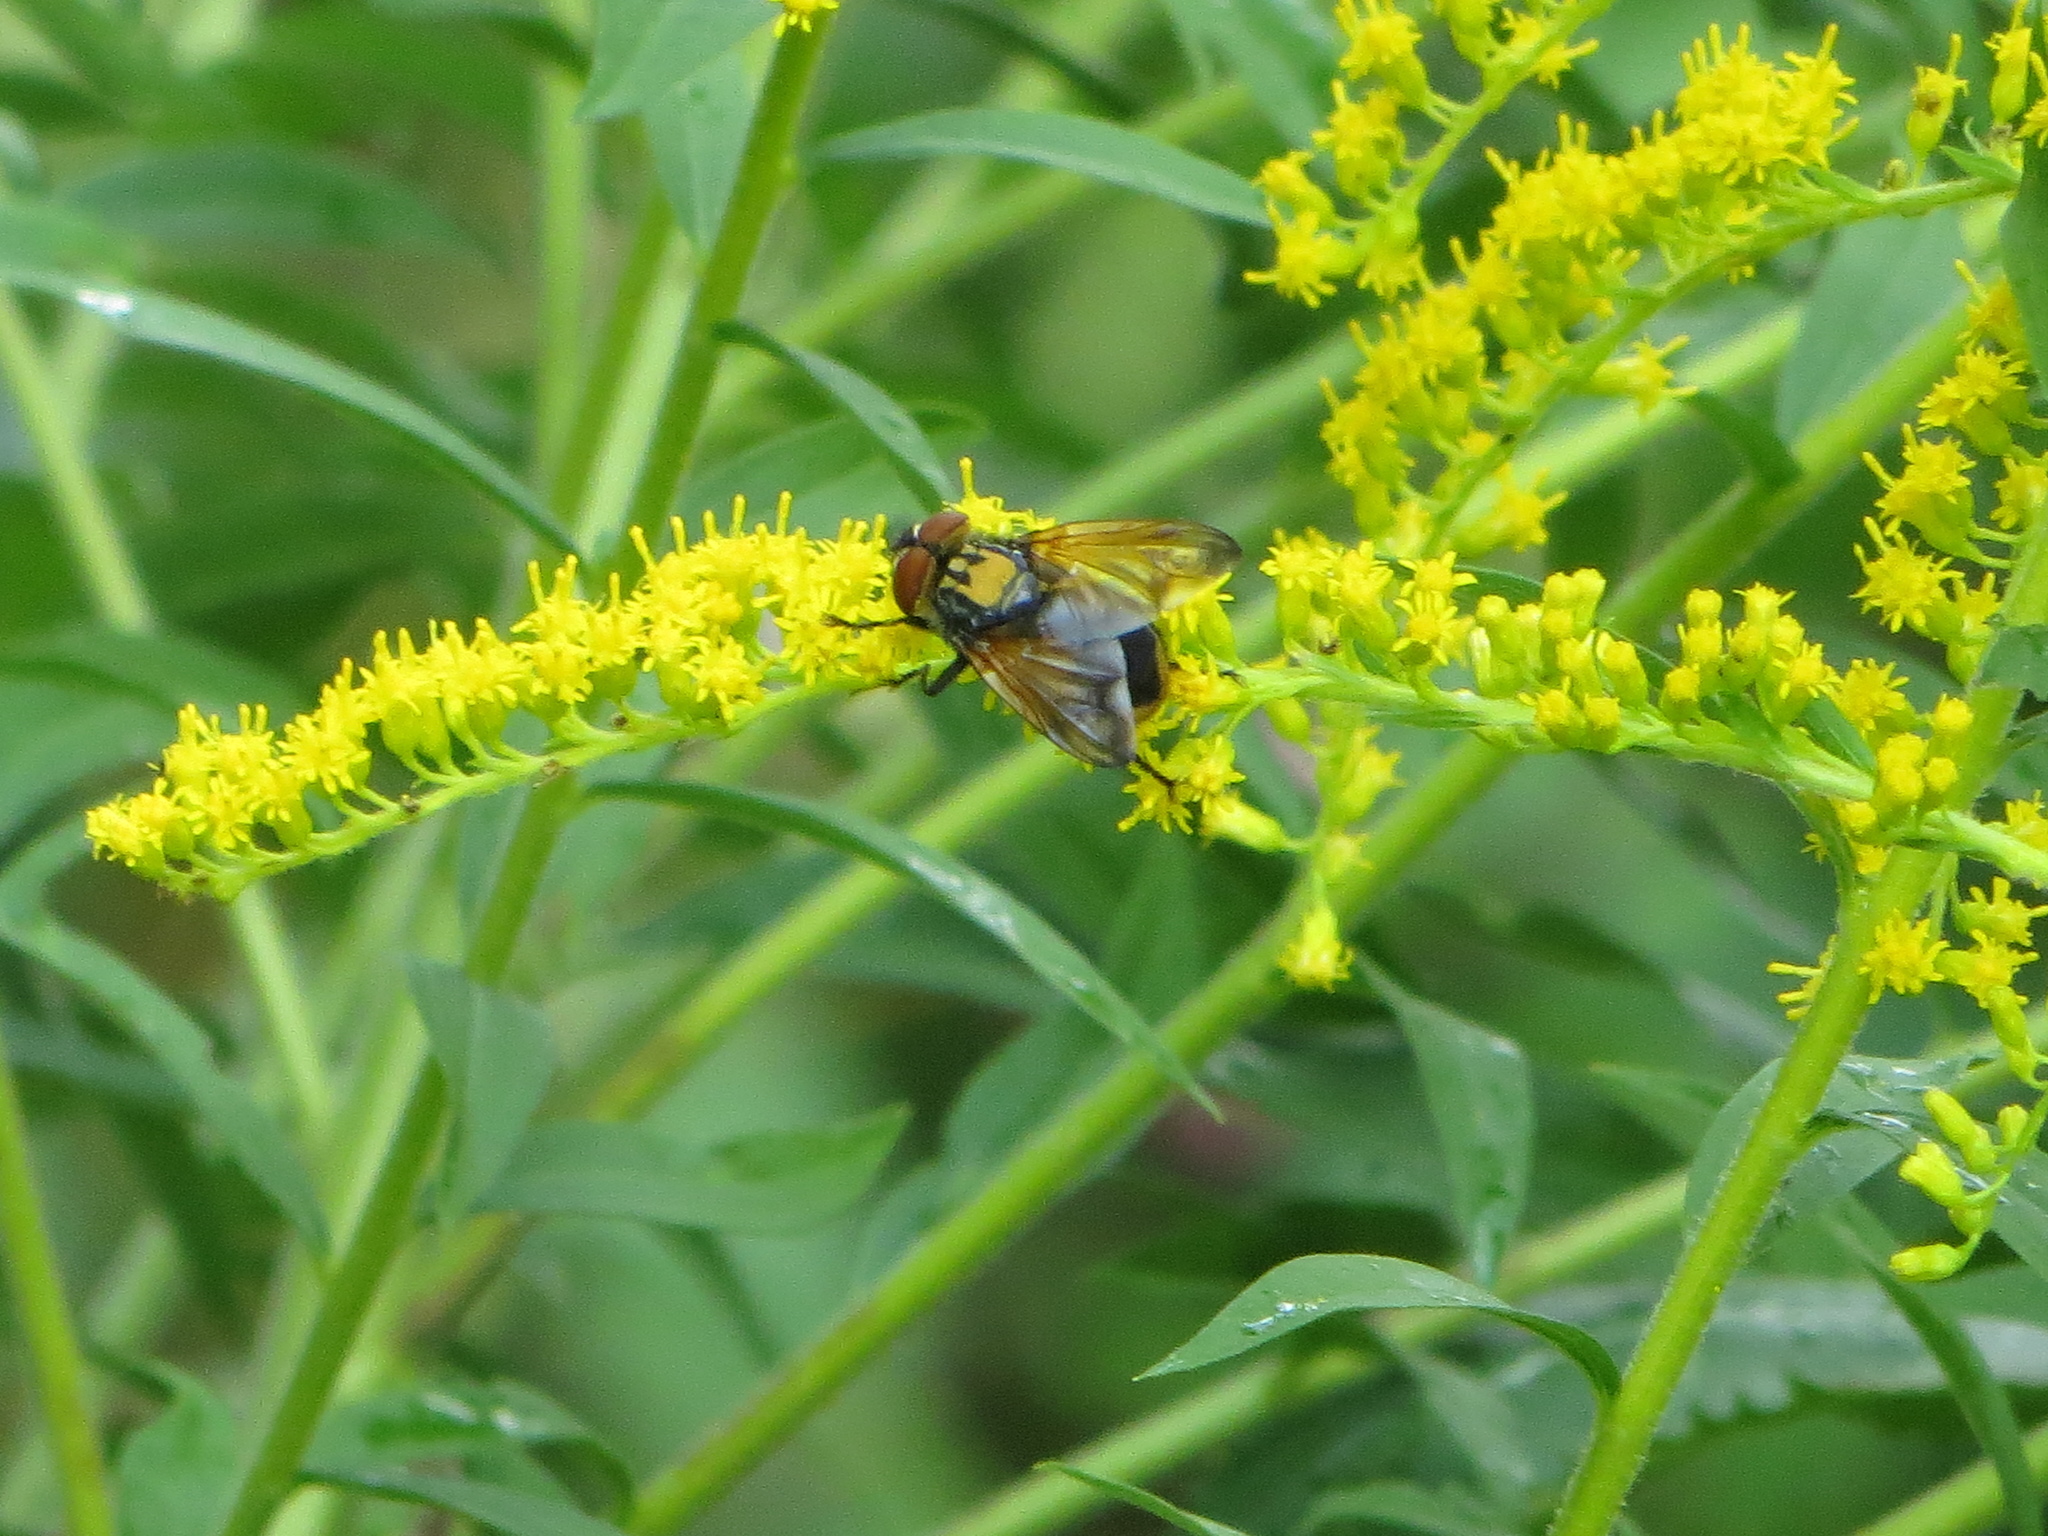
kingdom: Animalia
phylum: Arthropoda
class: Insecta
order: Diptera
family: Tachinidae
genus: Phasia
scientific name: Phasia aurigera
